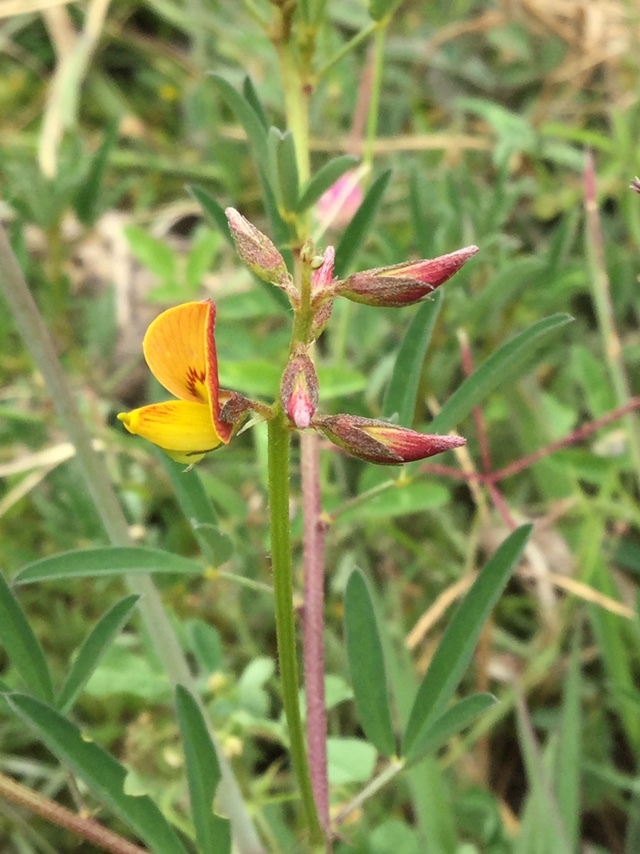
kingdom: Plantae
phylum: Tracheophyta
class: Magnoliopsida
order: Fabales
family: Fabaceae
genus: Crotalaria
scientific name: Crotalaria pumila
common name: Low rattlebox
